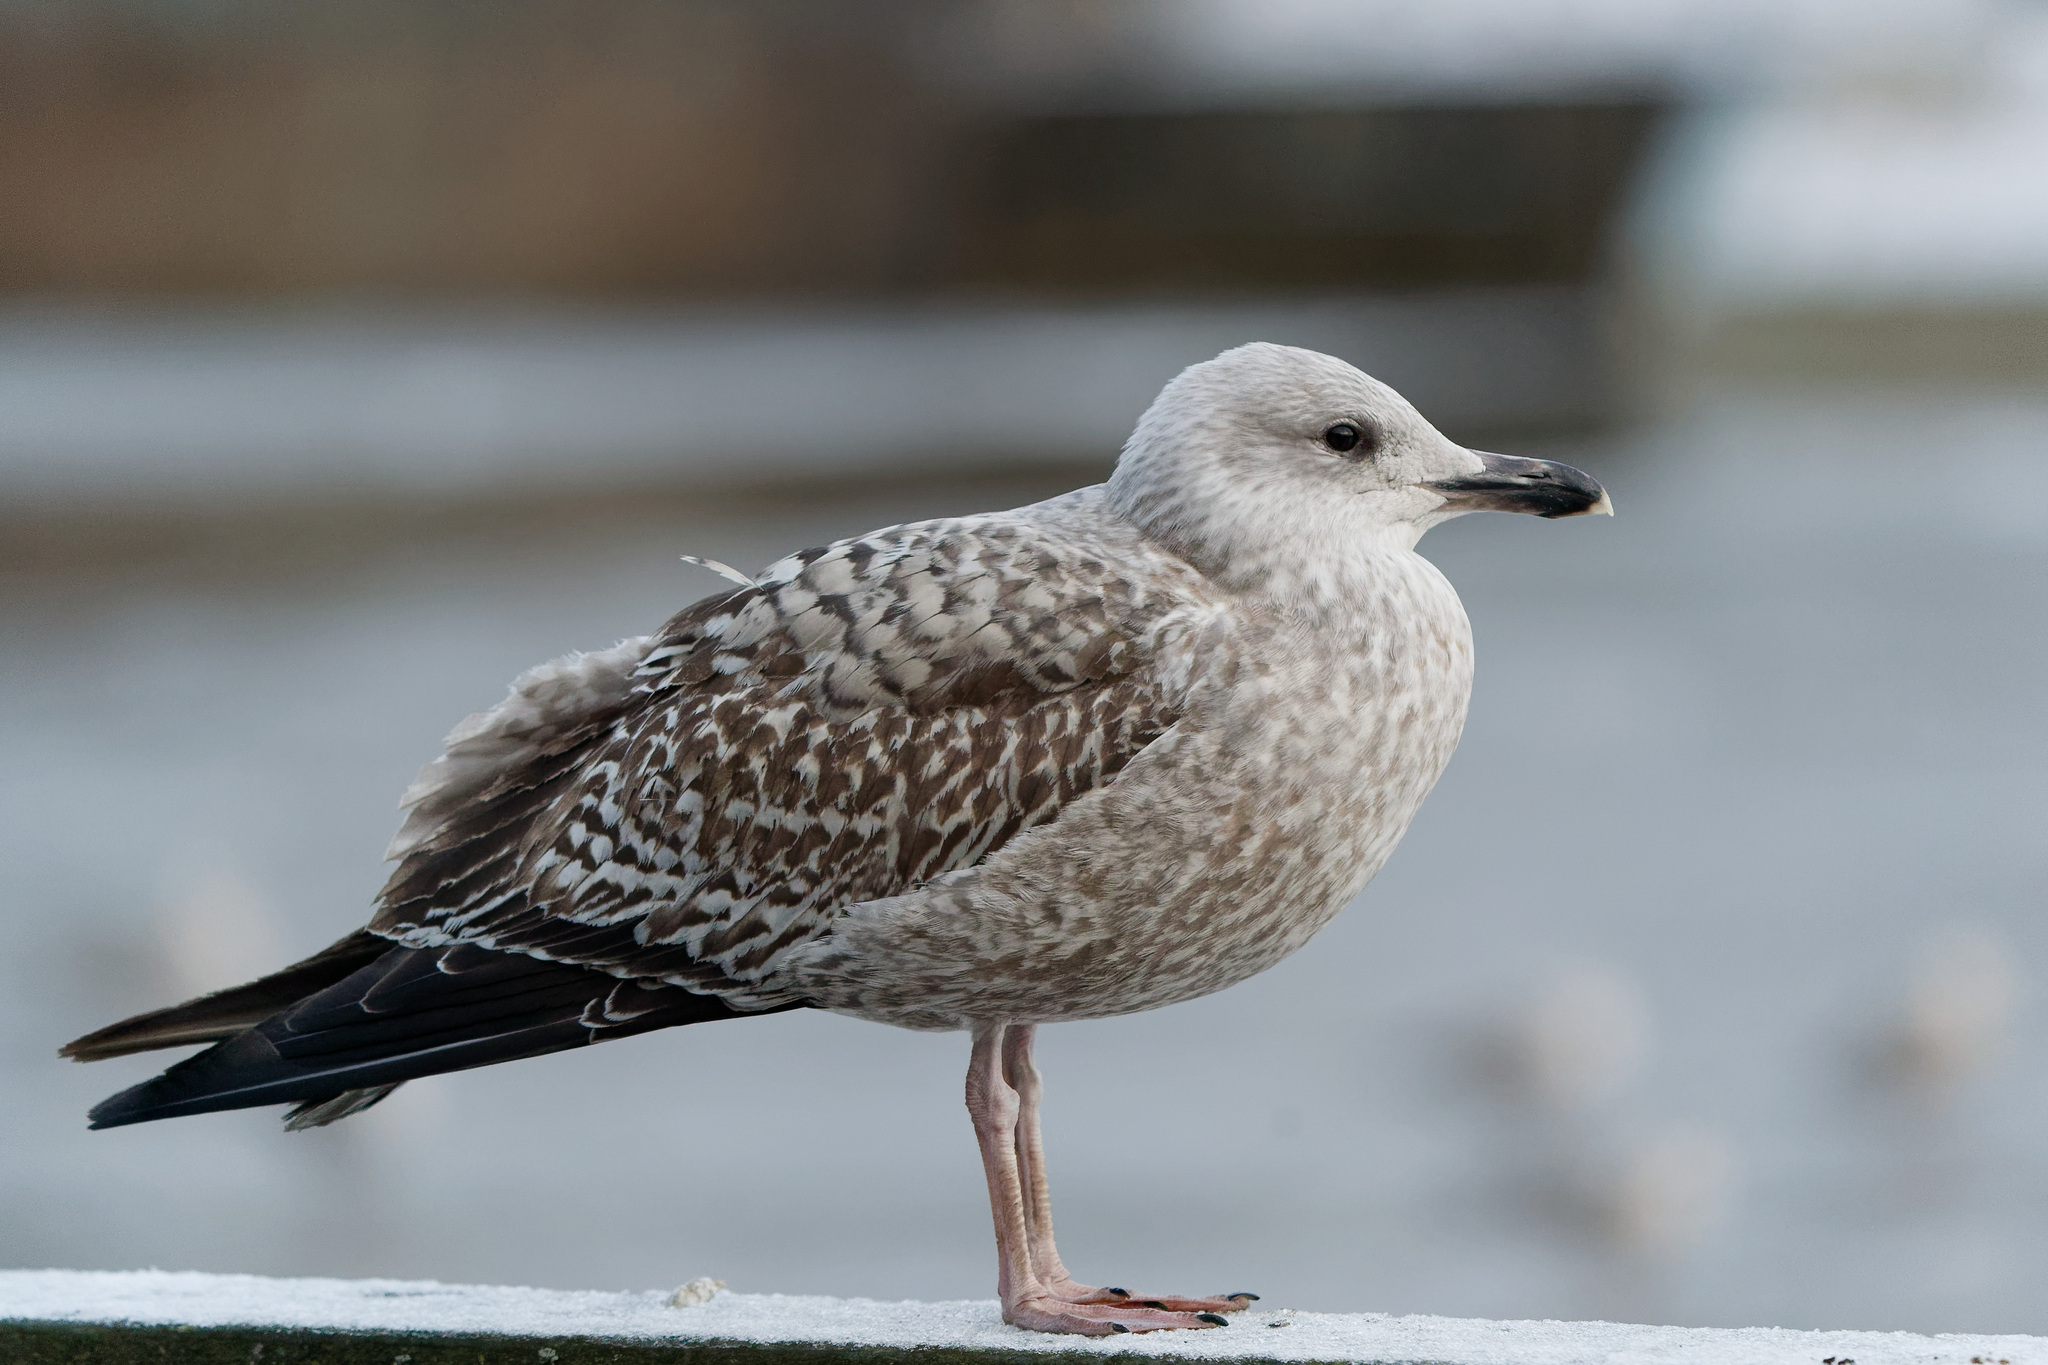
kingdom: Animalia
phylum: Chordata
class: Aves
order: Charadriiformes
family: Laridae
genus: Larus
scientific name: Larus argentatus
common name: Herring gull
